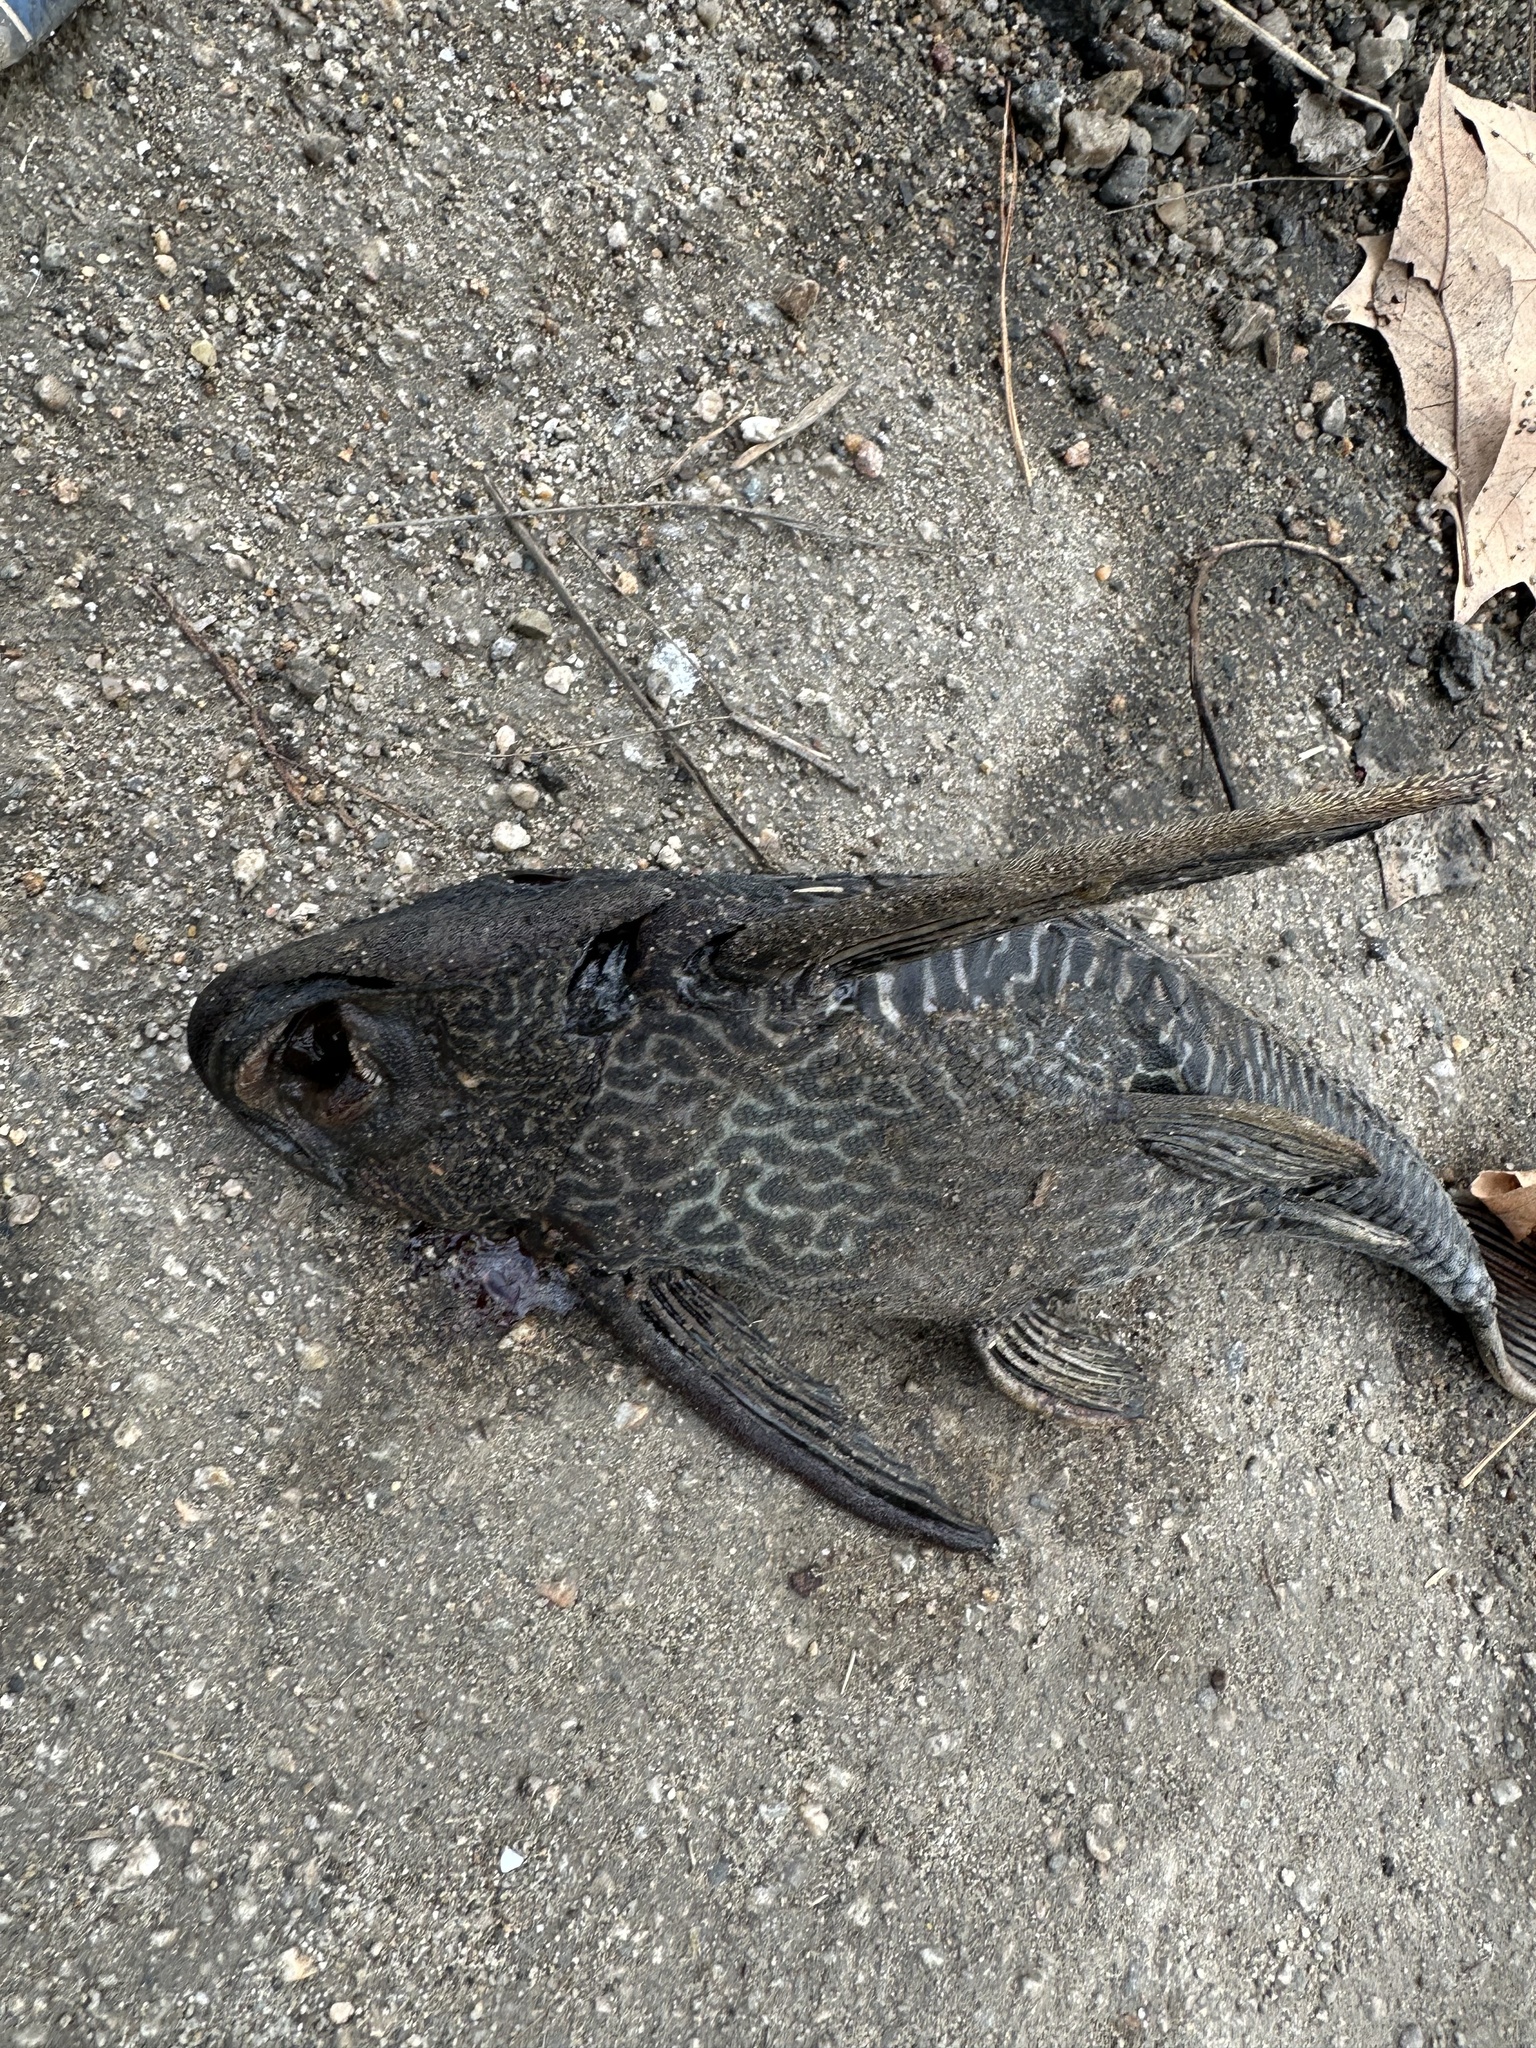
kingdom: Animalia
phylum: Chordata
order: Siluriformes
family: Loricariidae
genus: Pterygoplichthys
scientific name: Pterygoplichthys
